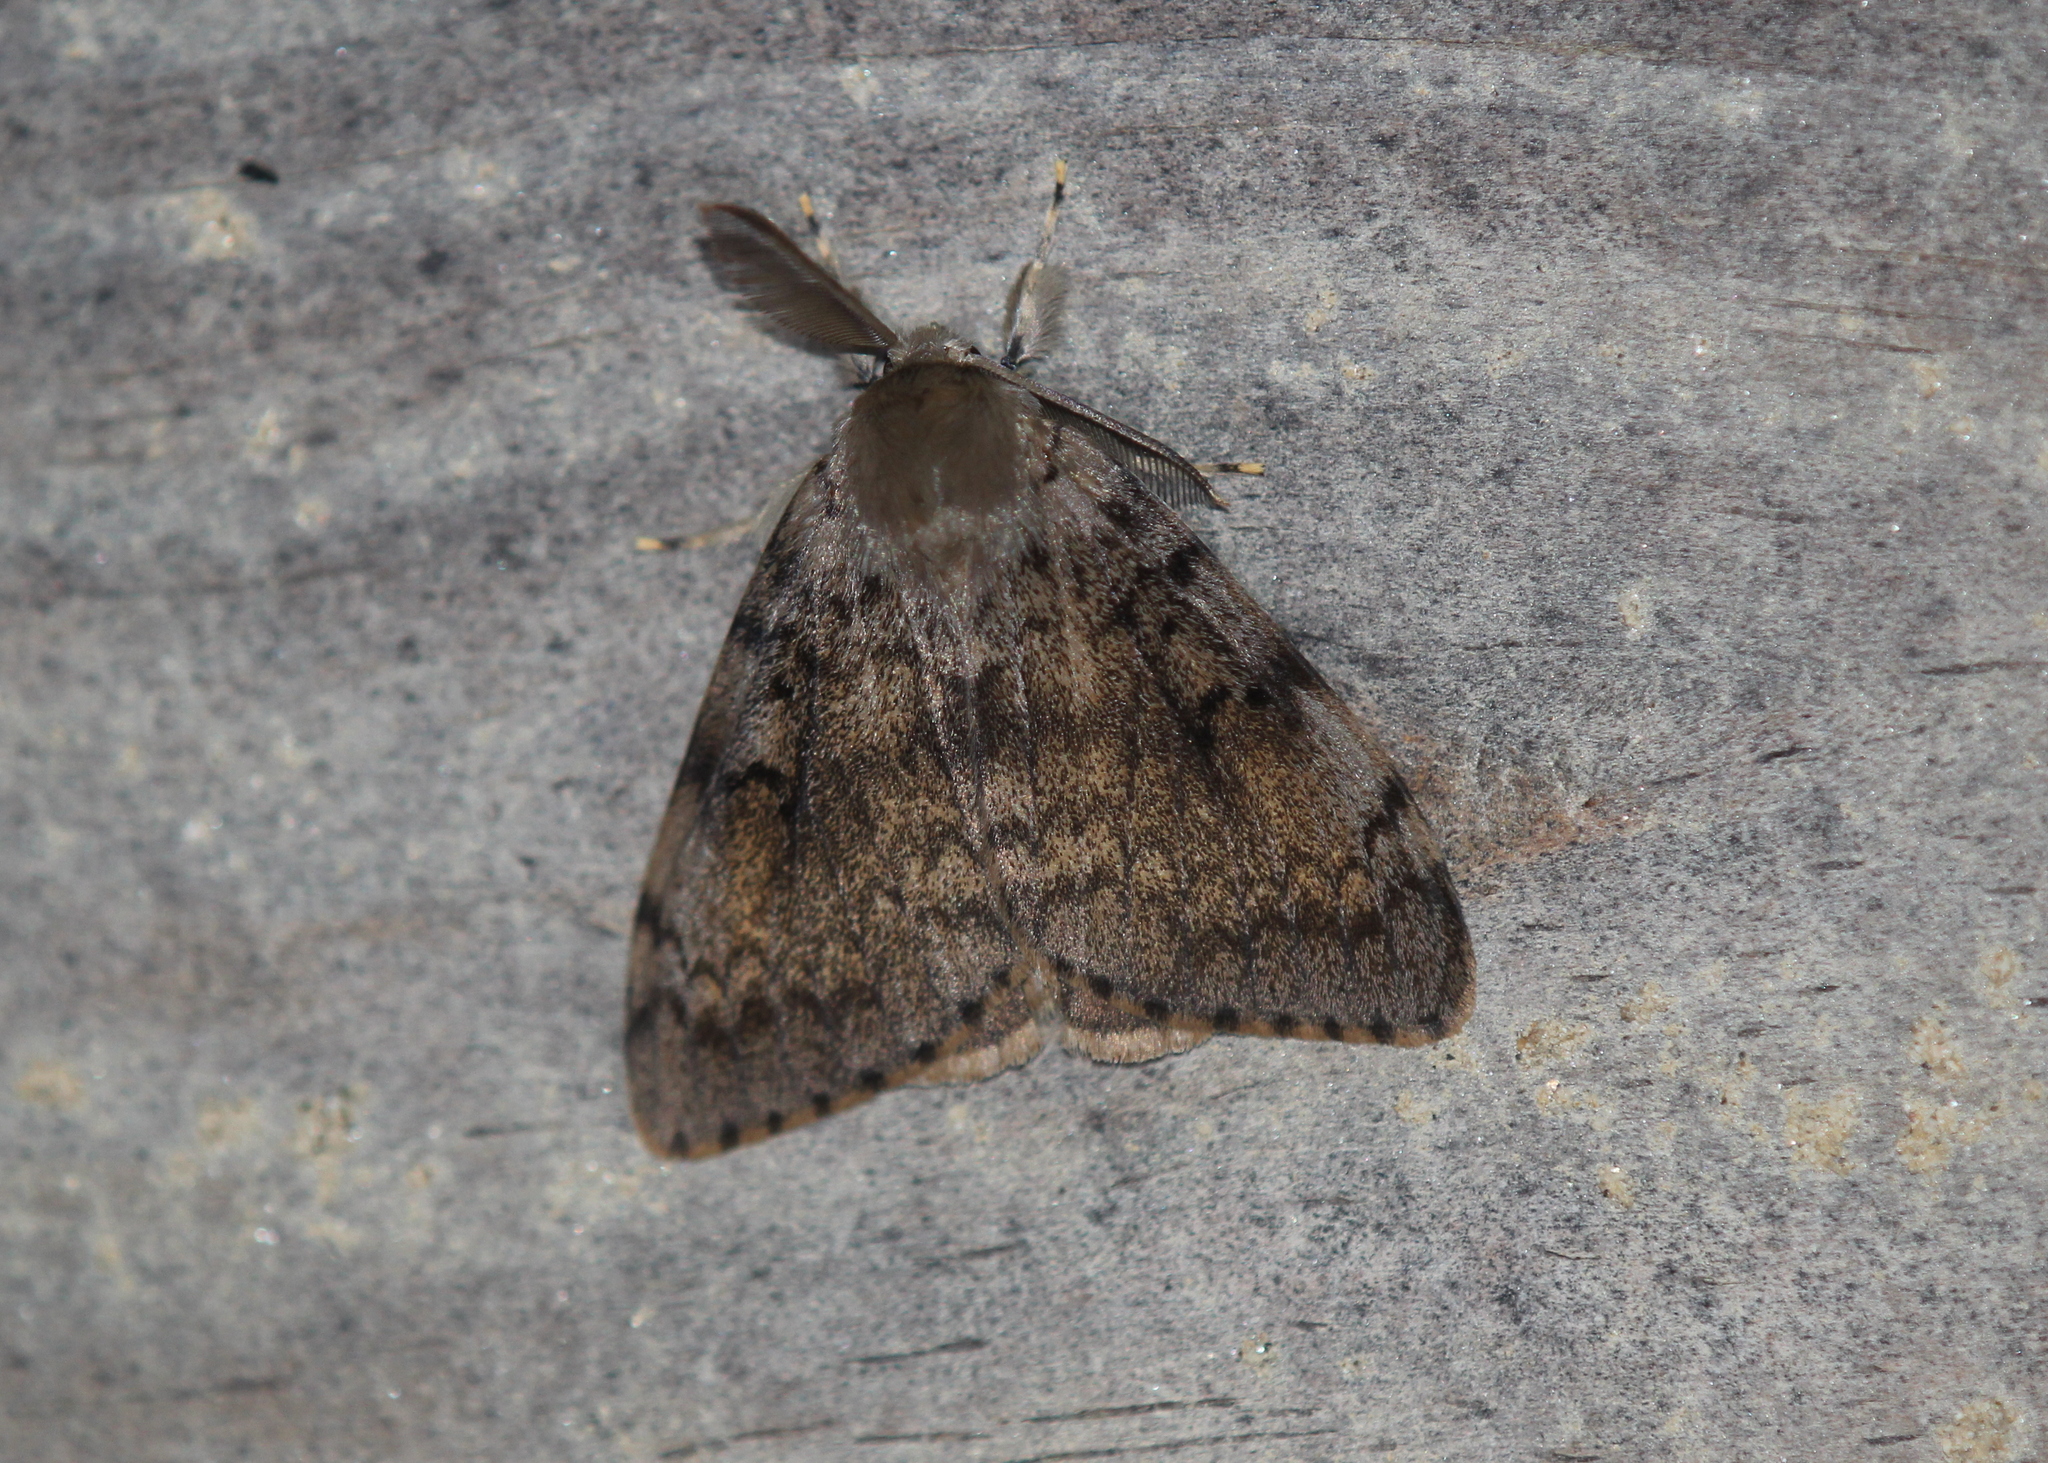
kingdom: Animalia
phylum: Arthropoda
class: Insecta
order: Lepidoptera
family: Erebidae
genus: Lymantria
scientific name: Lymantria dispar
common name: Gypsy moth
